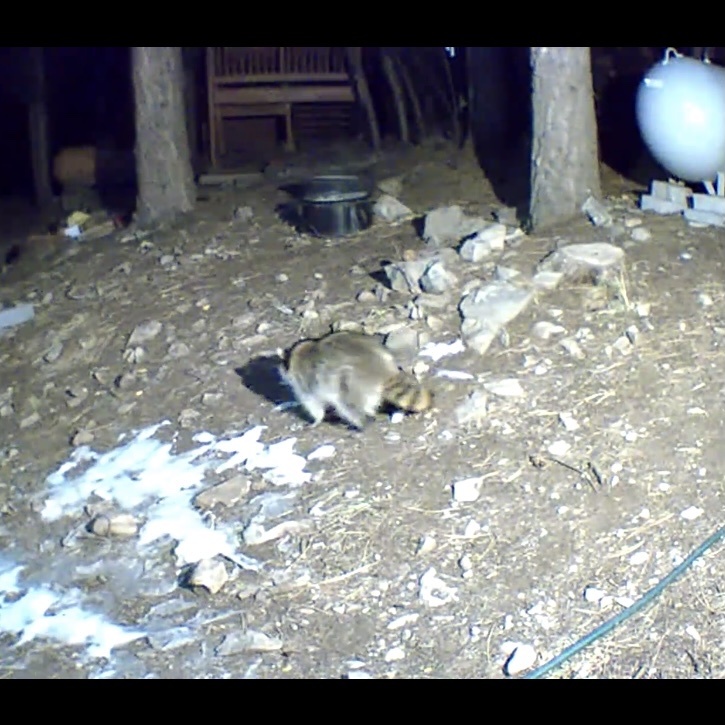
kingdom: Animalia
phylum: Chordata
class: Mammalia
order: Carnivora
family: Procyonidae
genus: Procyon
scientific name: Procyon lotor
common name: Raccoon
